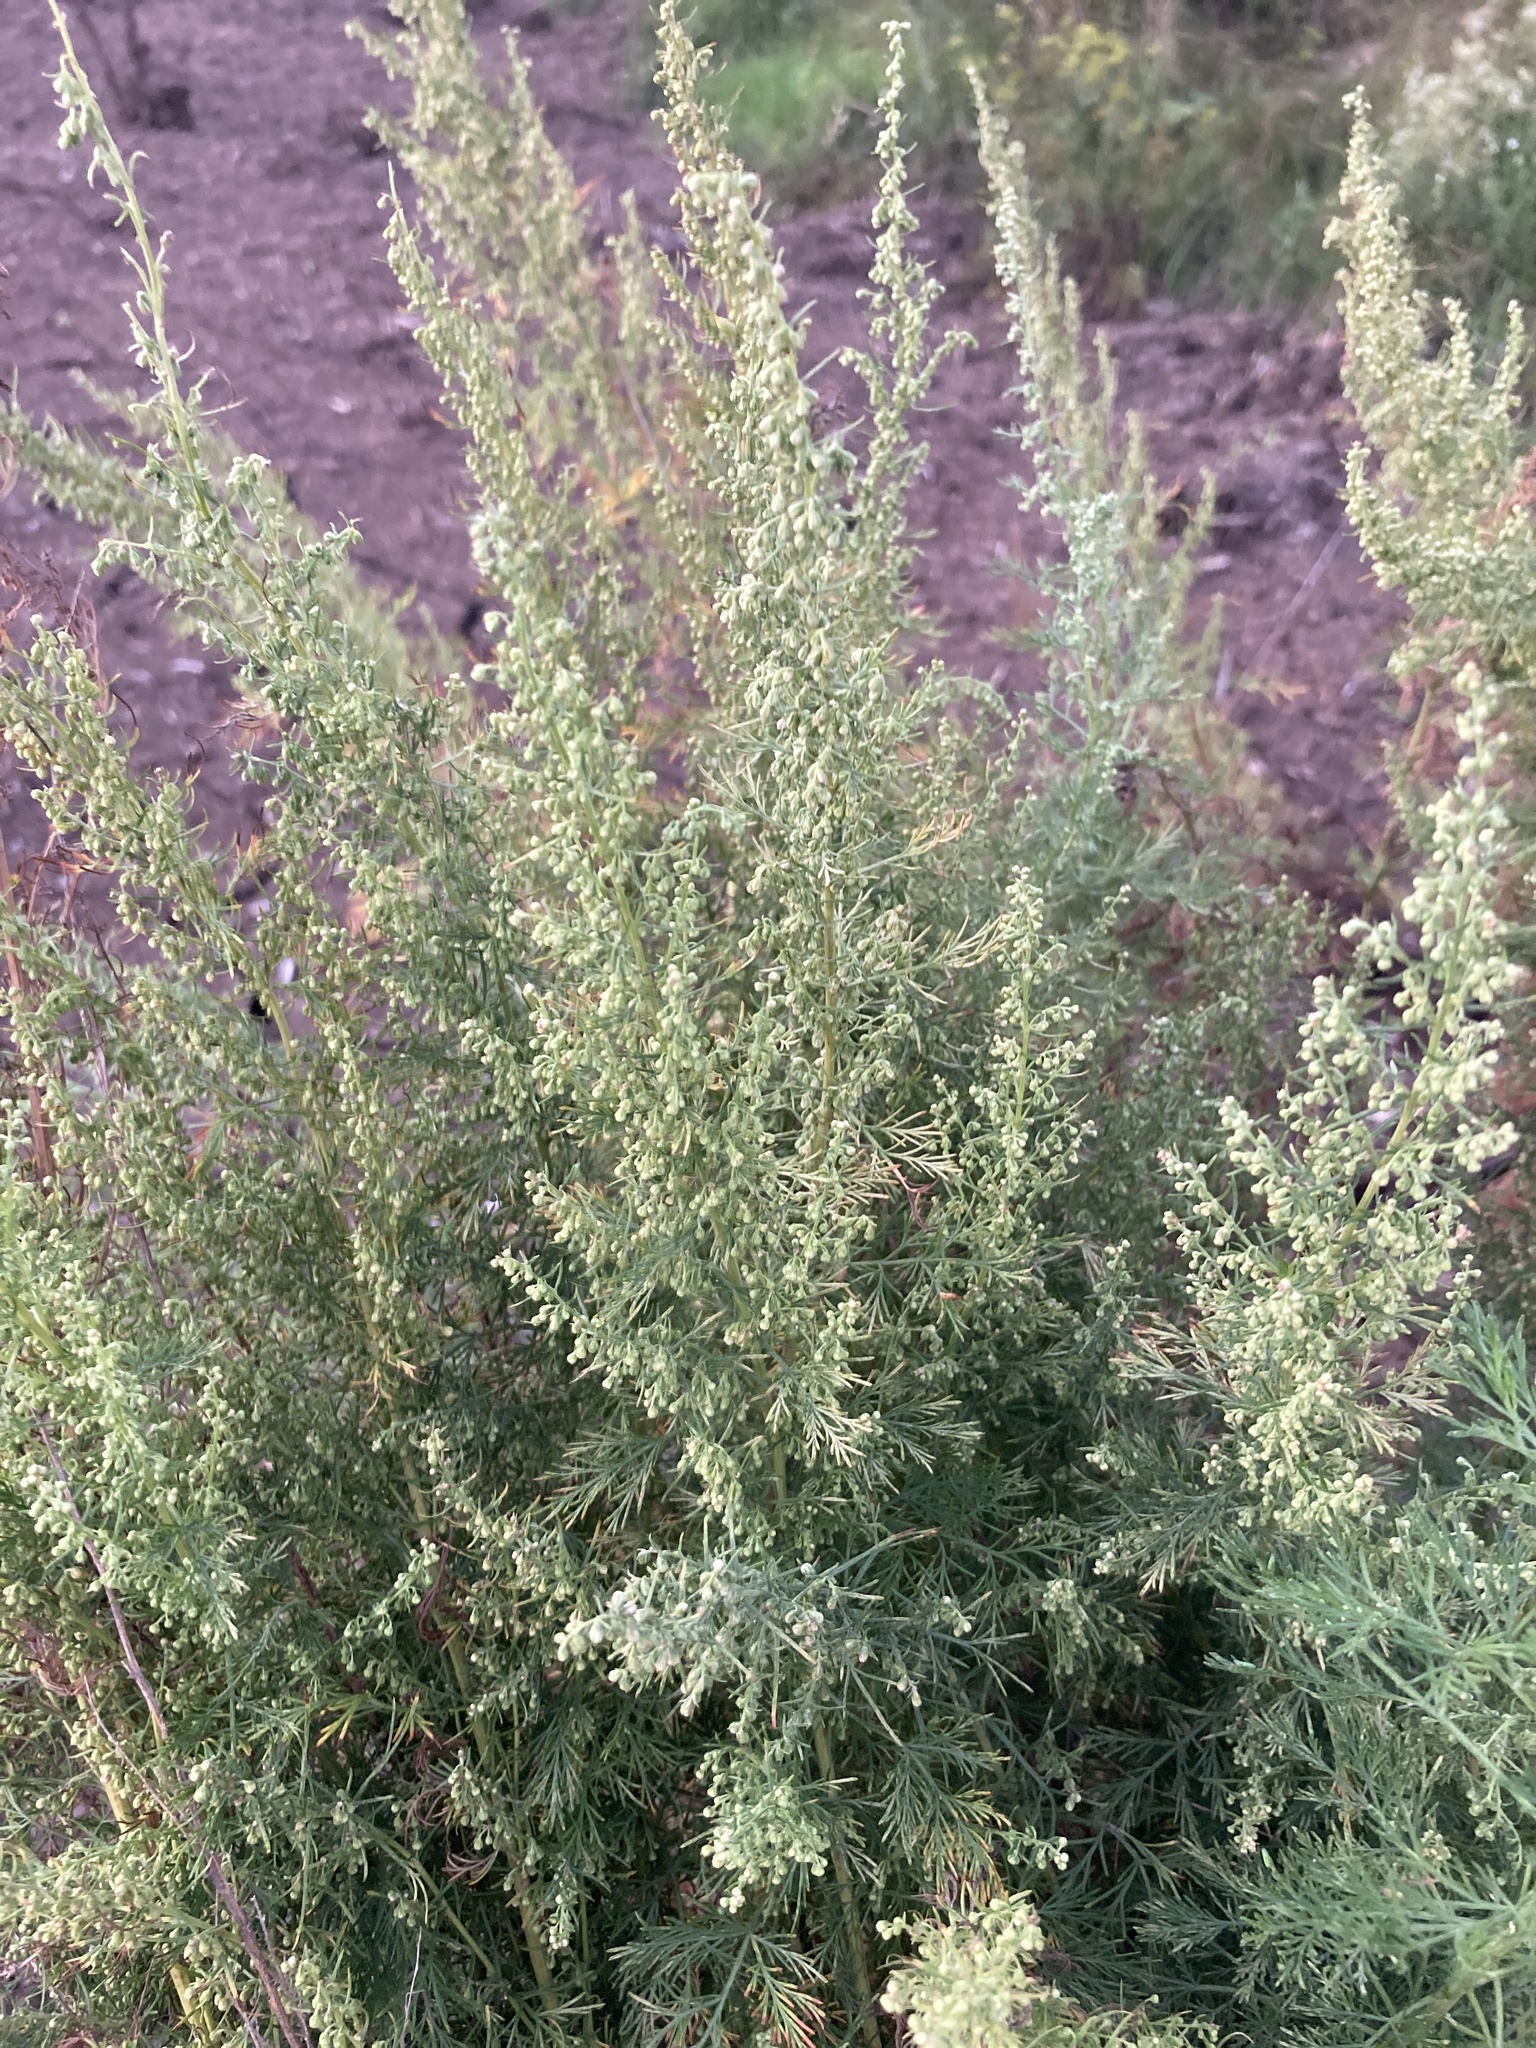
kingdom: Plantae
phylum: Tracheophyta
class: Magnoliopsida
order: Asterales
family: Asteraceae
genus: Artemisia
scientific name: Artemisia abrotanum
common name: Southernwood
